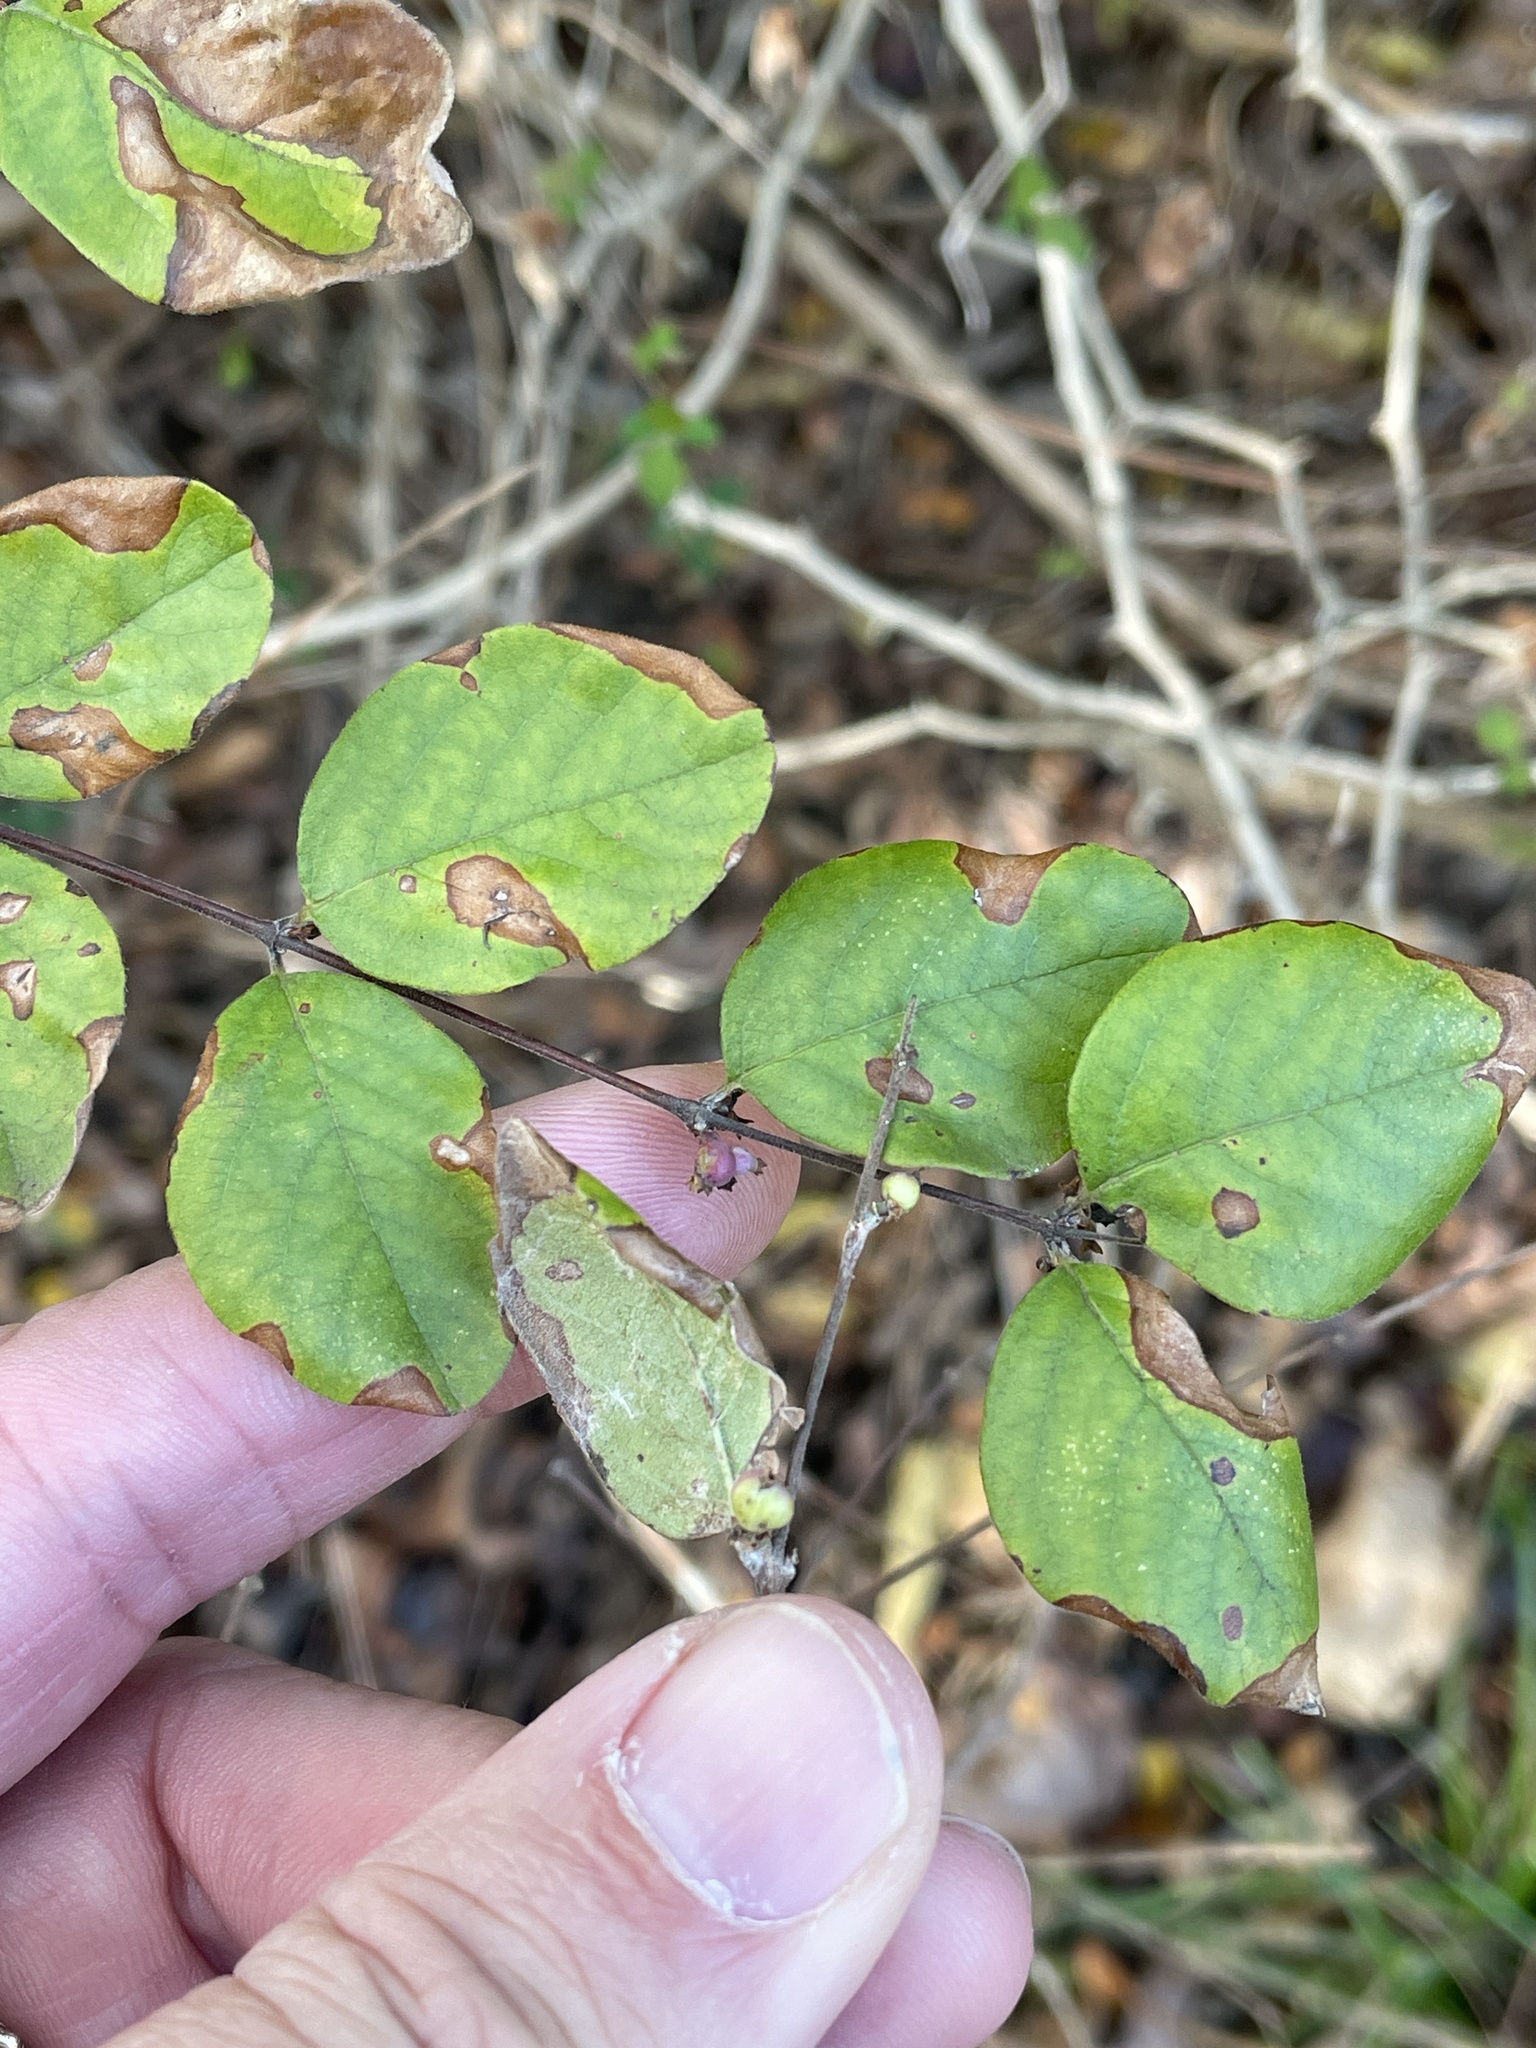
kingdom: Plantae
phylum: Tracheophyta
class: Magnoliopsida
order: Dipsacales
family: Caprifoliaceae
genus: Symphoricarpos
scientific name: Symphoricarpos orbiculatus
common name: Coralberry
